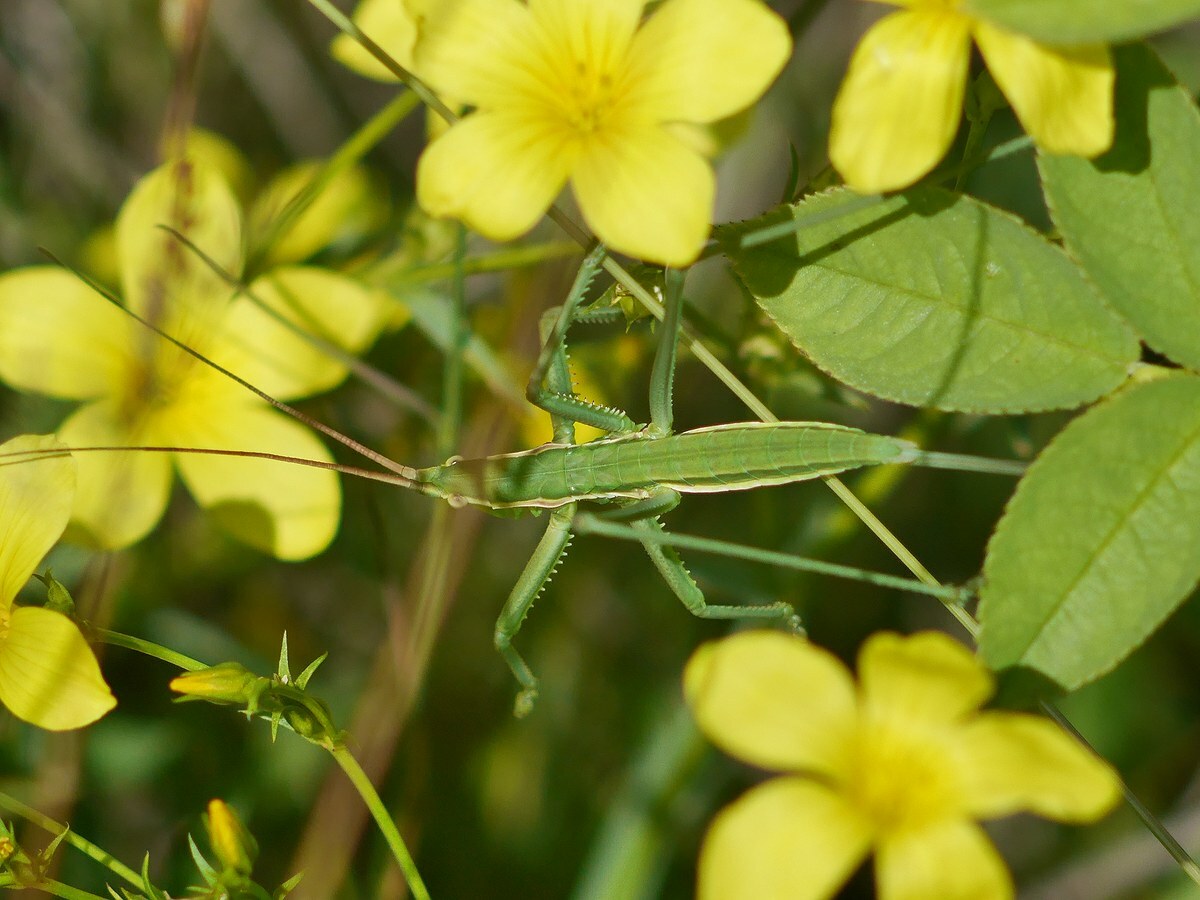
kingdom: Animalia
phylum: Arthropoda
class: Insecta
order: Orthoptera
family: Tettigoniidae
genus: Saga
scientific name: Saga pedo
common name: Common predatory bush-cricket
